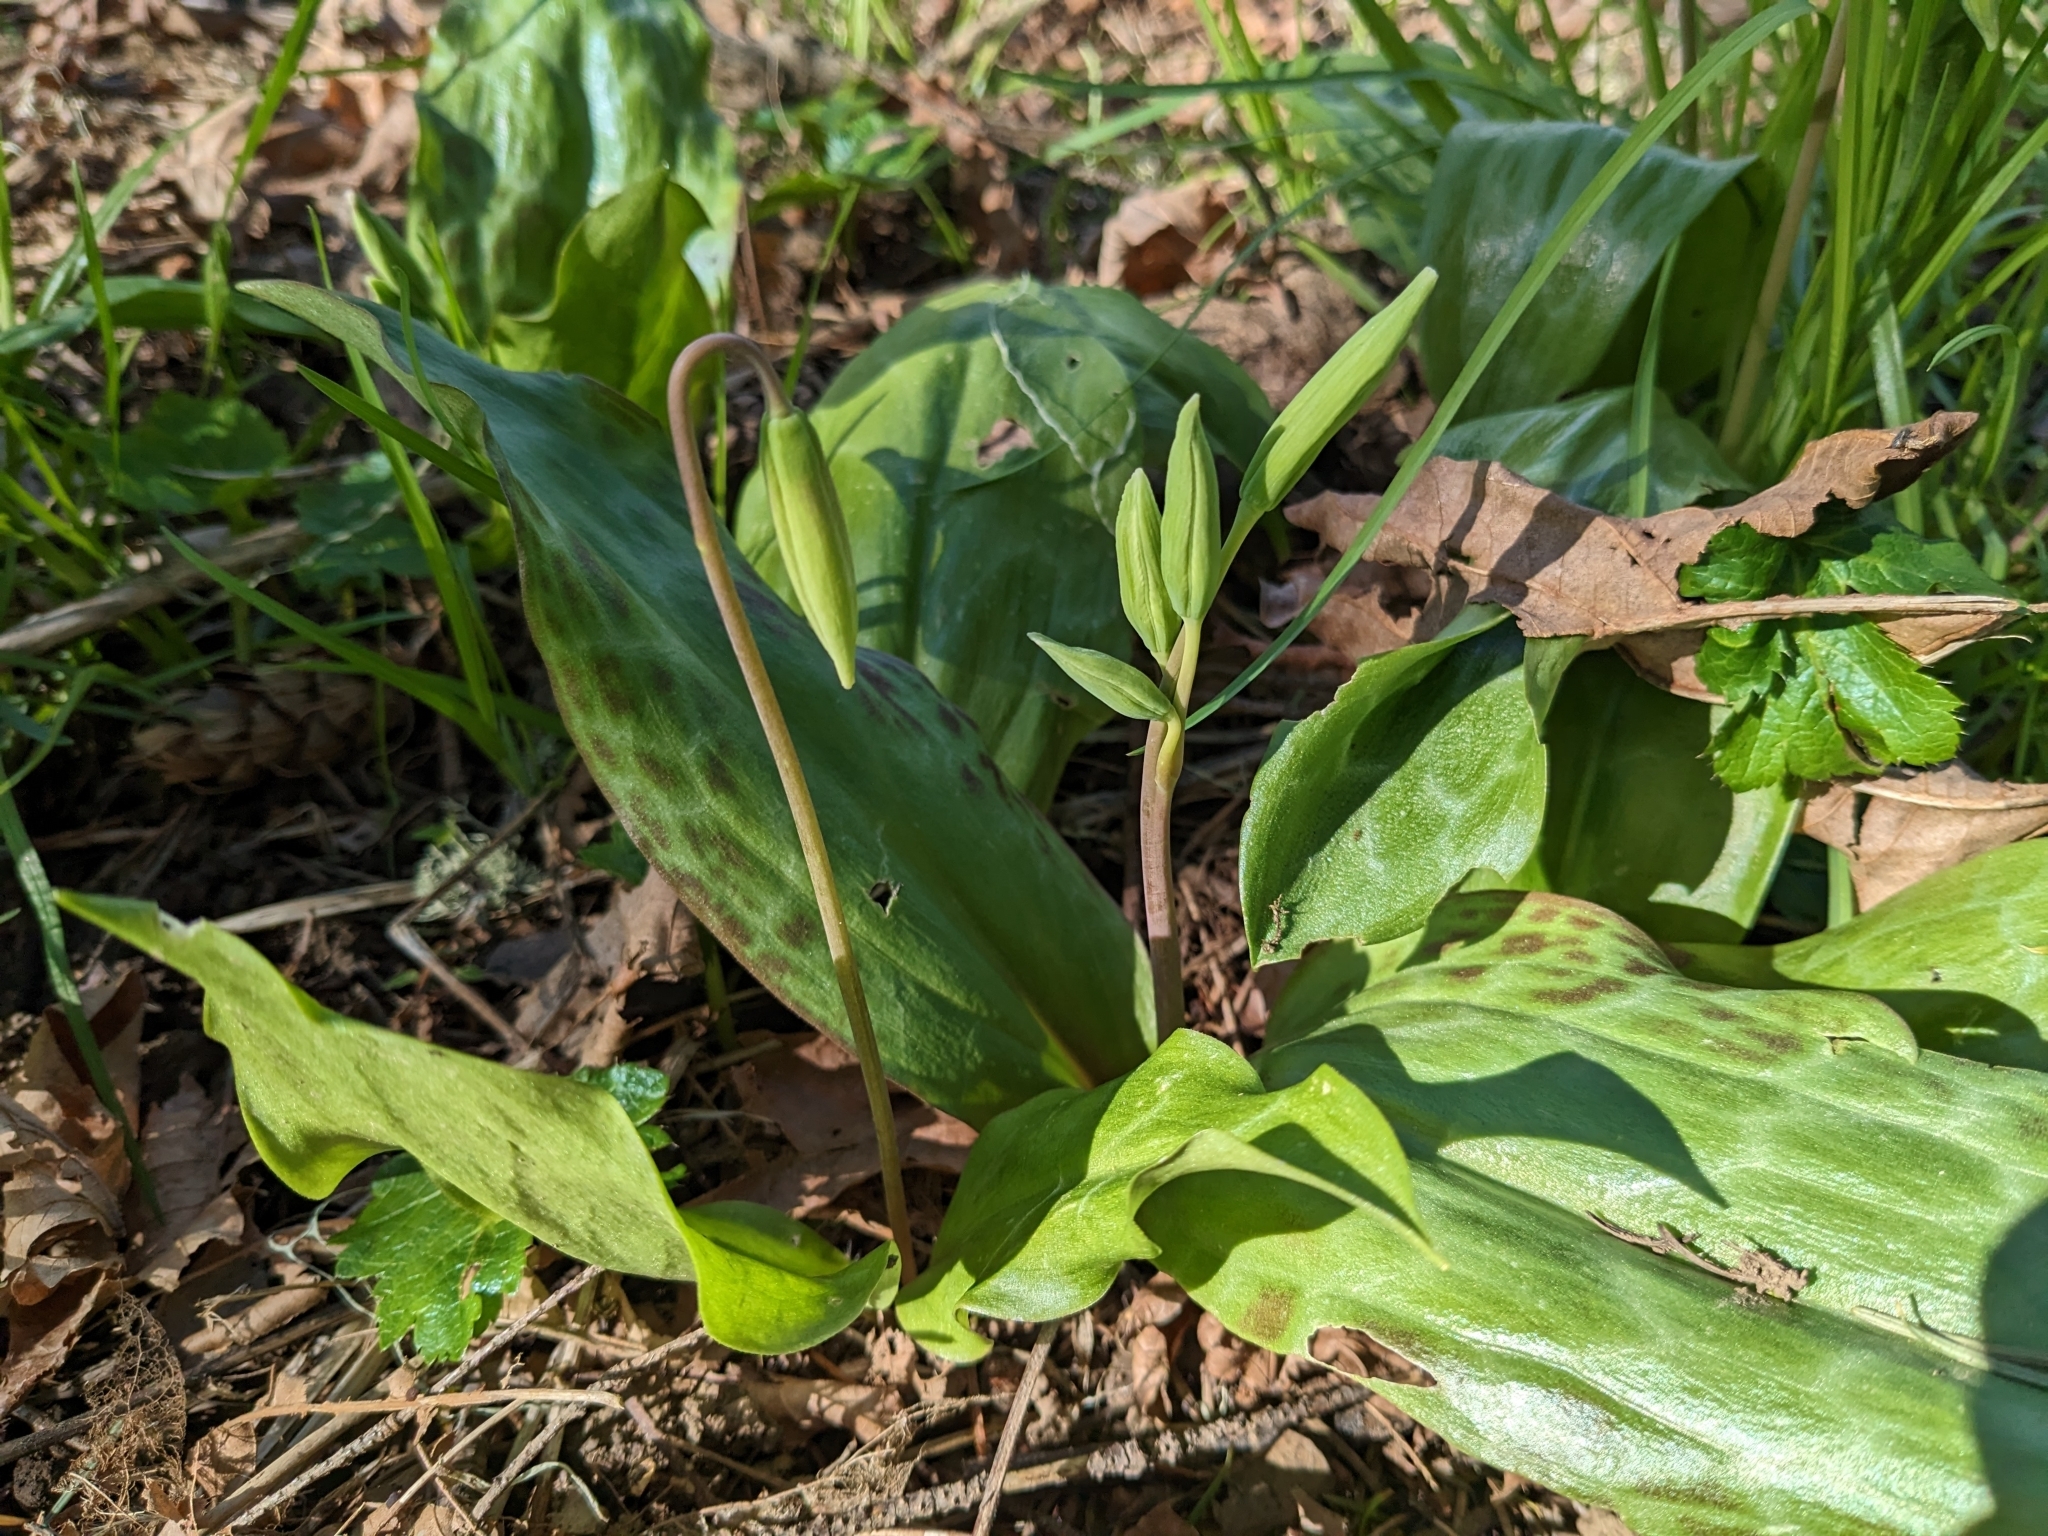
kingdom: Plantae
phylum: Tracheophyta
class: Liliopsida
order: Liliales
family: Liliaceae
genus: Erythronium
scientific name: Erythronium oregonum
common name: Giant adder's-tongue
